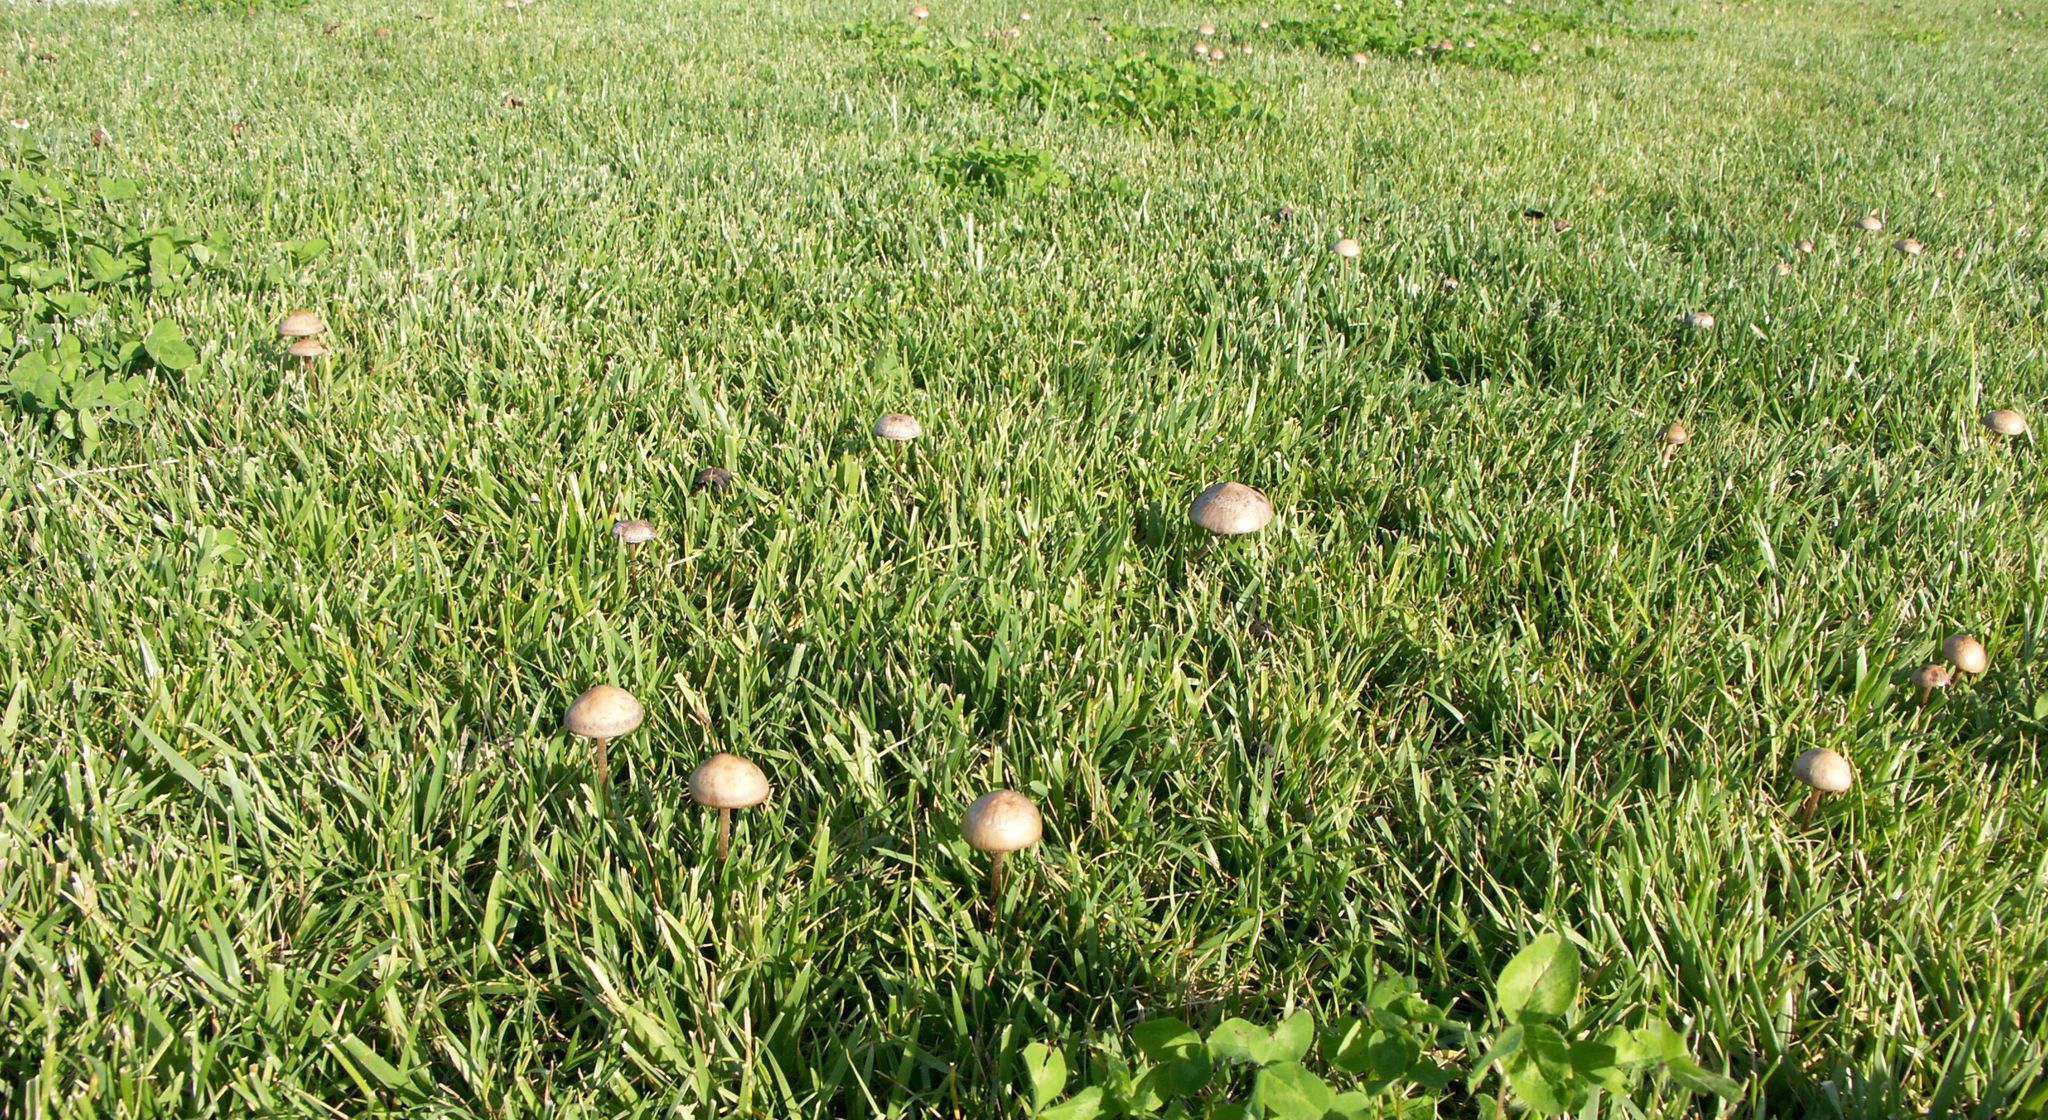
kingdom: Fungi
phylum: Basidiomycota
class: Agaricomycetes
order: Agaricales
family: Bolbitiaceae
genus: Panaeolus
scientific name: Panaeolus subbalteatus
